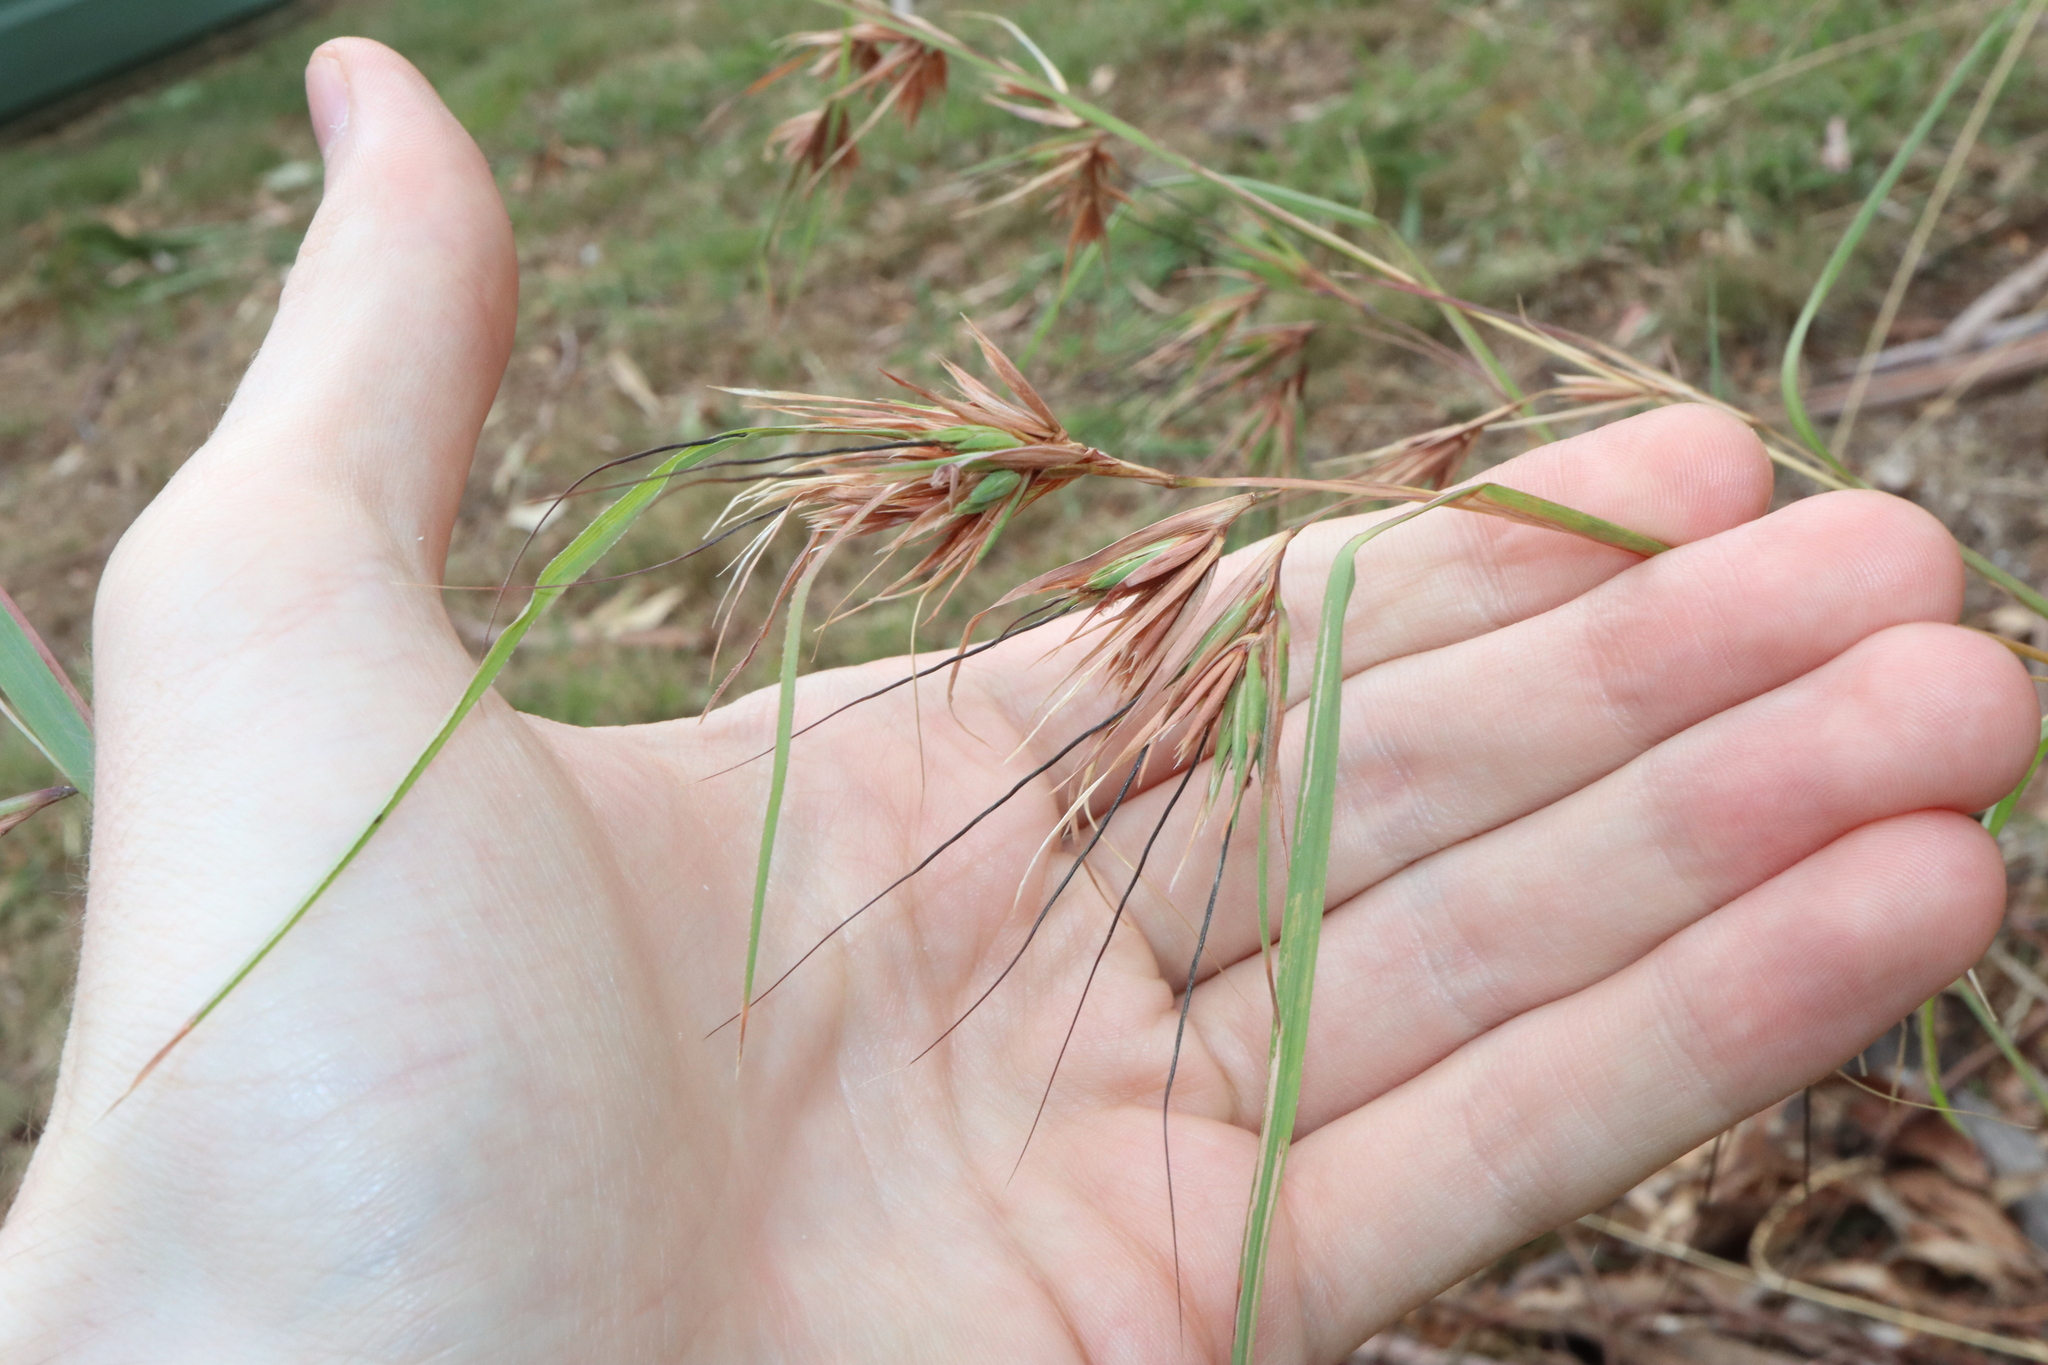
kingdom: Plantae
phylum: Tracheophyta
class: Liliopsida
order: Poales
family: Poaceae
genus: Themeda
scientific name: Themeda triandra
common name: Kangaroo grass
